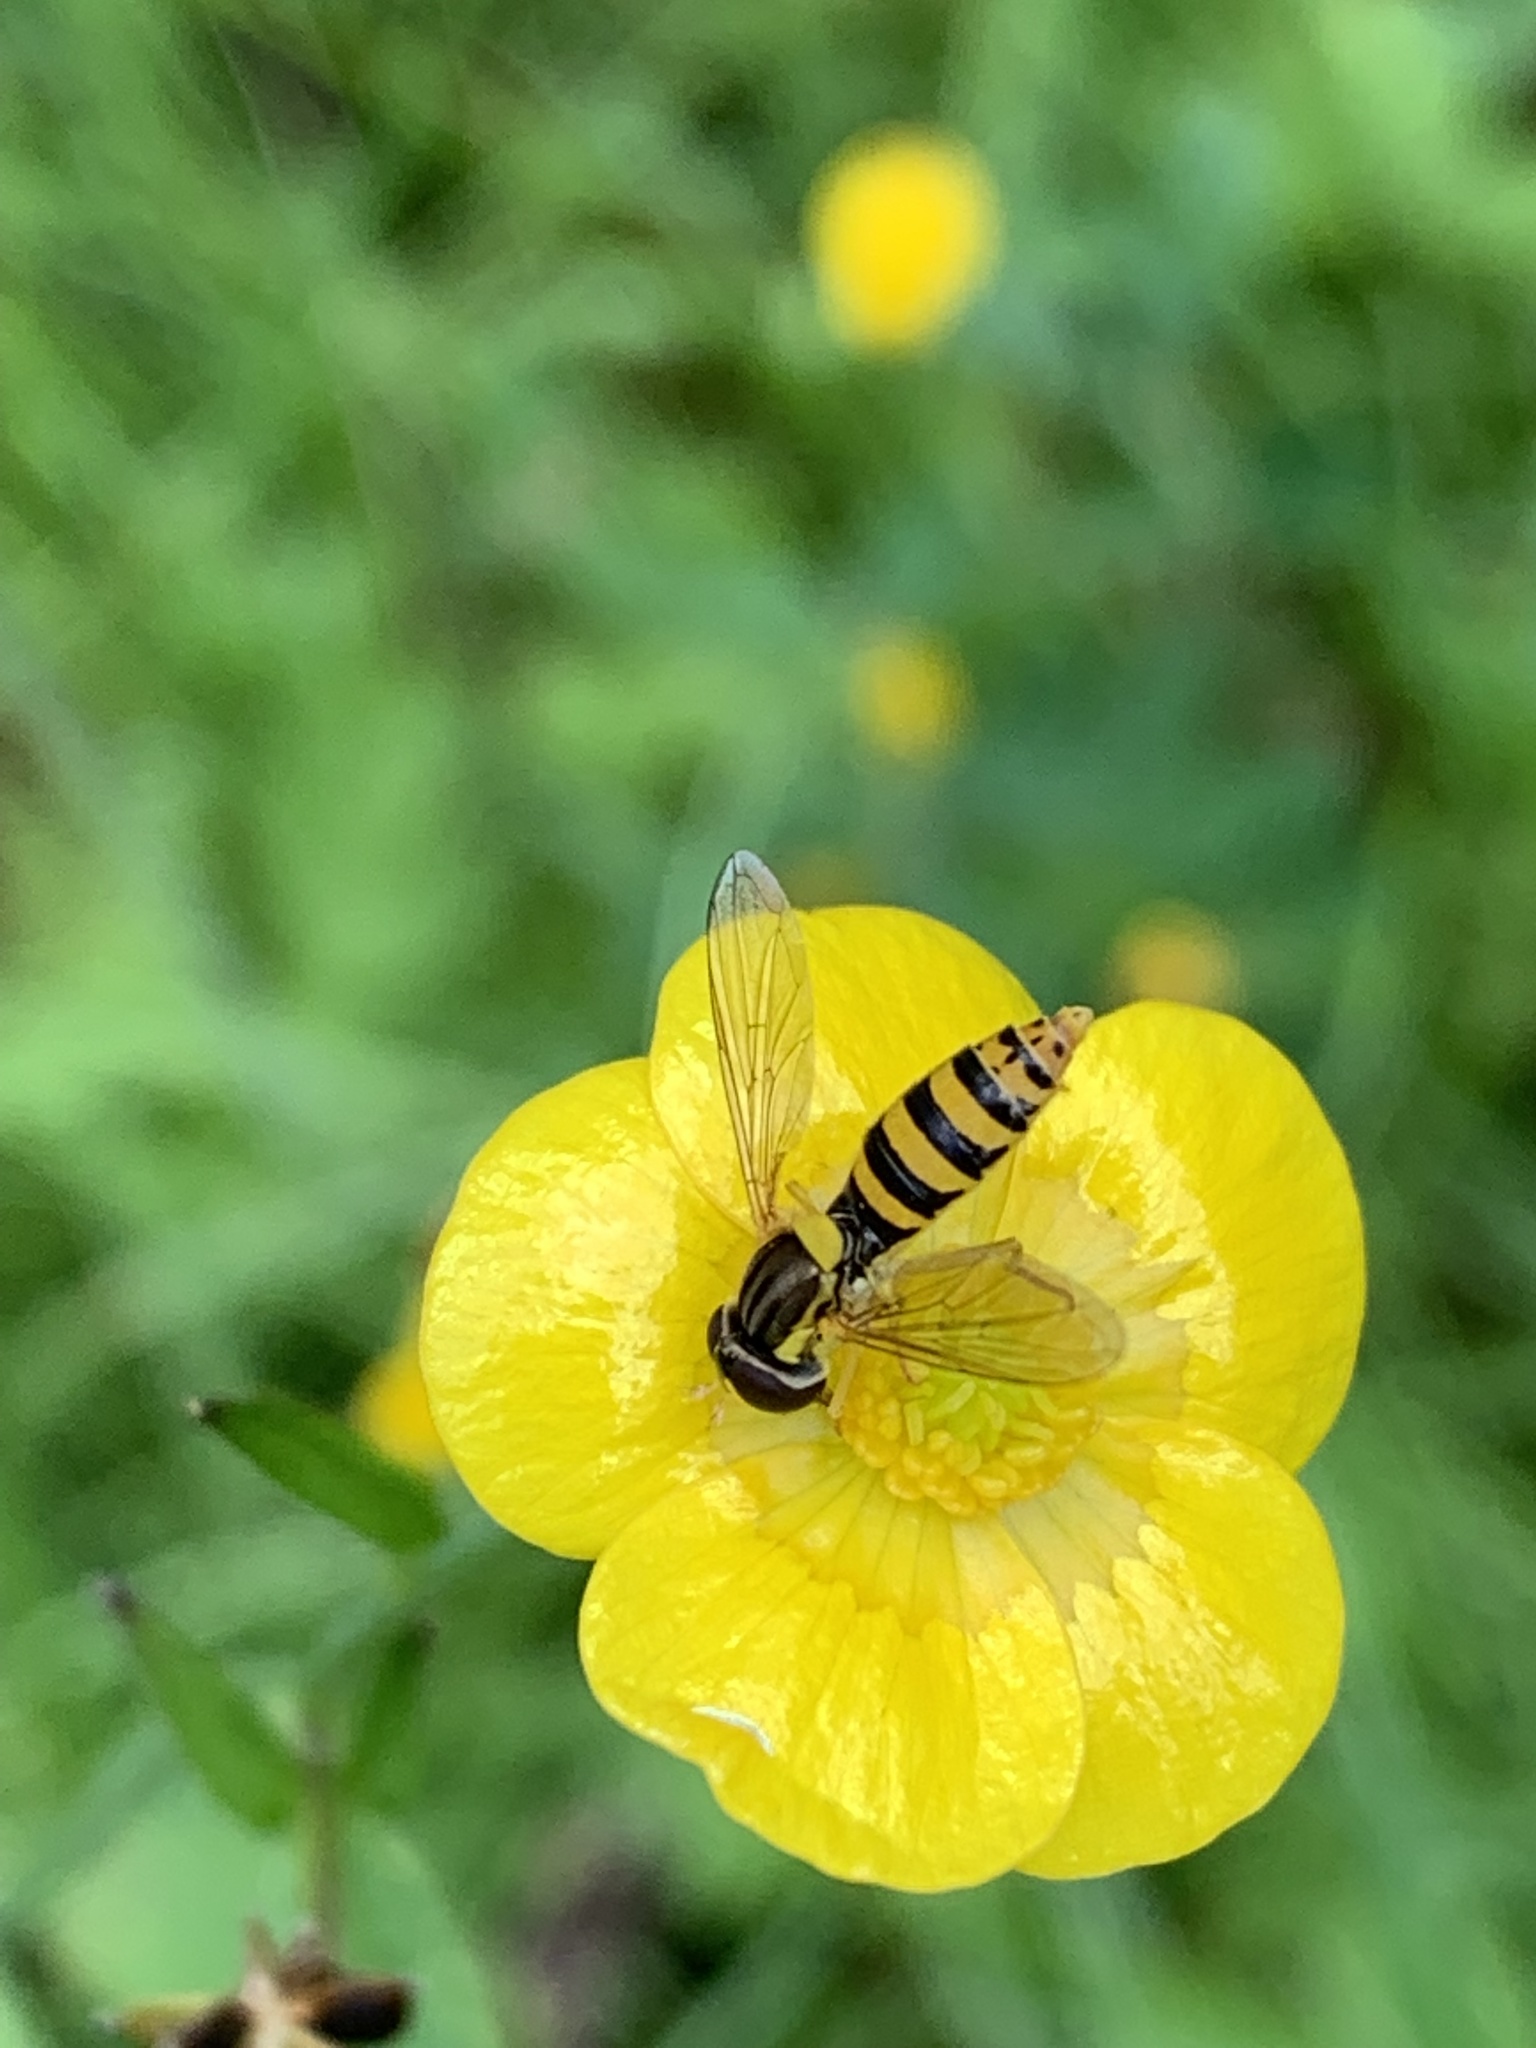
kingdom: Animalia
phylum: Arthropoda
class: Insecta
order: Diptera
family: Syrphidae
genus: Sphaerophoria
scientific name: Sphaerophoria
